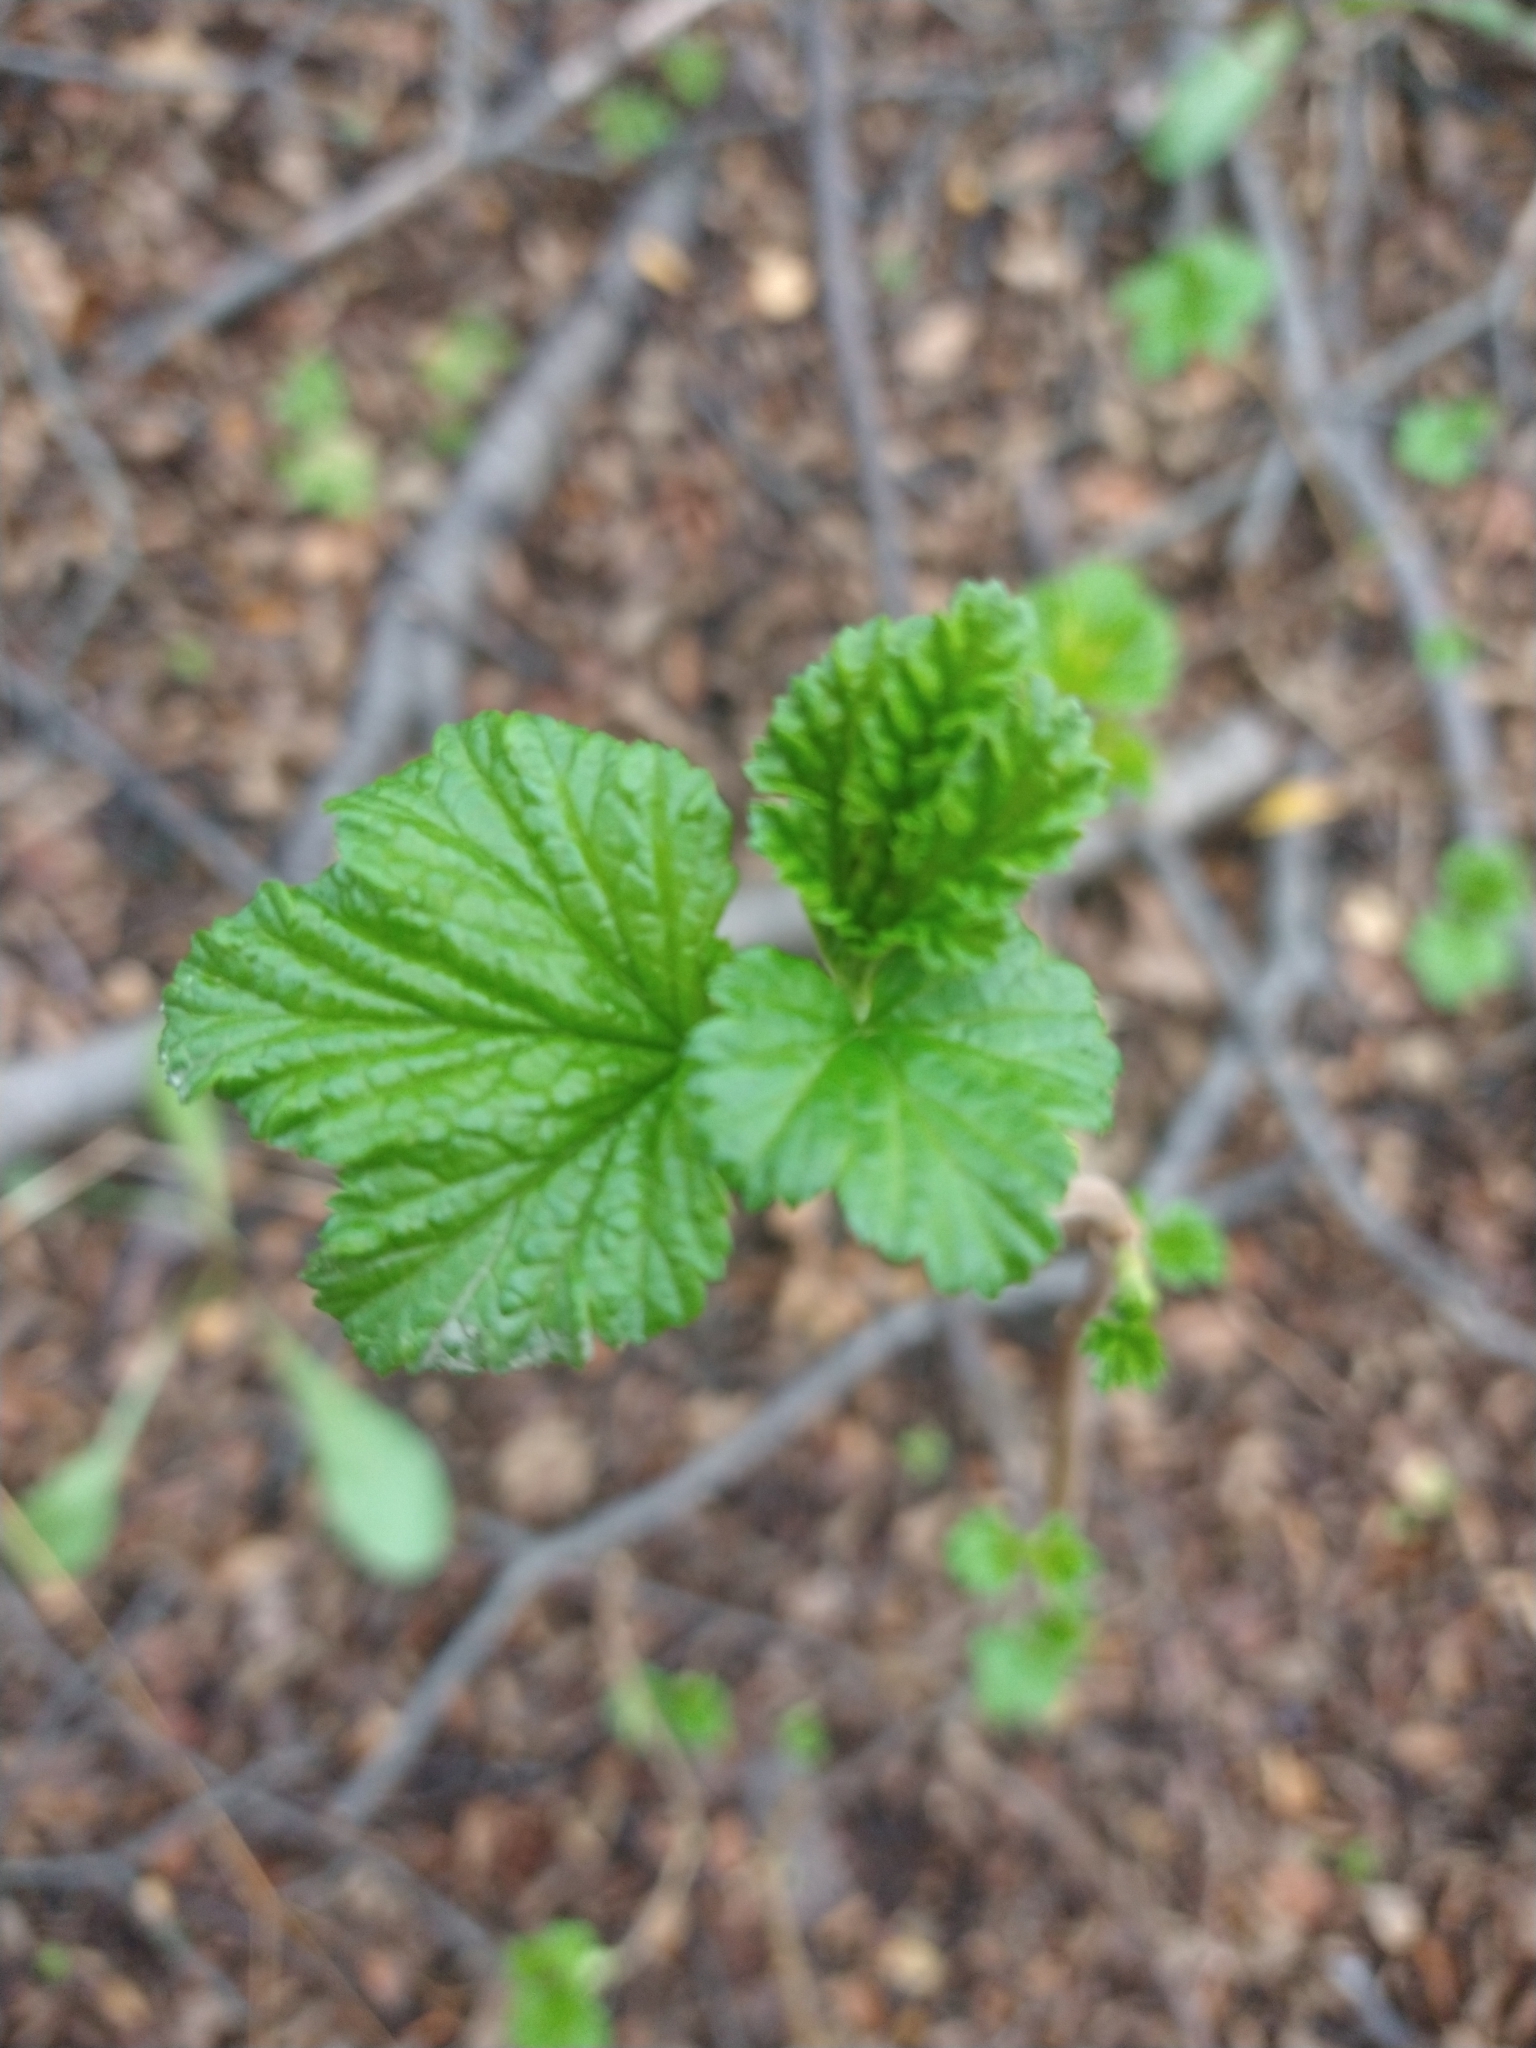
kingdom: Plantae
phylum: Tracheophyta
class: Magnoliopsida
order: Saxifragales
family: Grossulariaceae
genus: Ribes
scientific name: Ribes magellanicum
